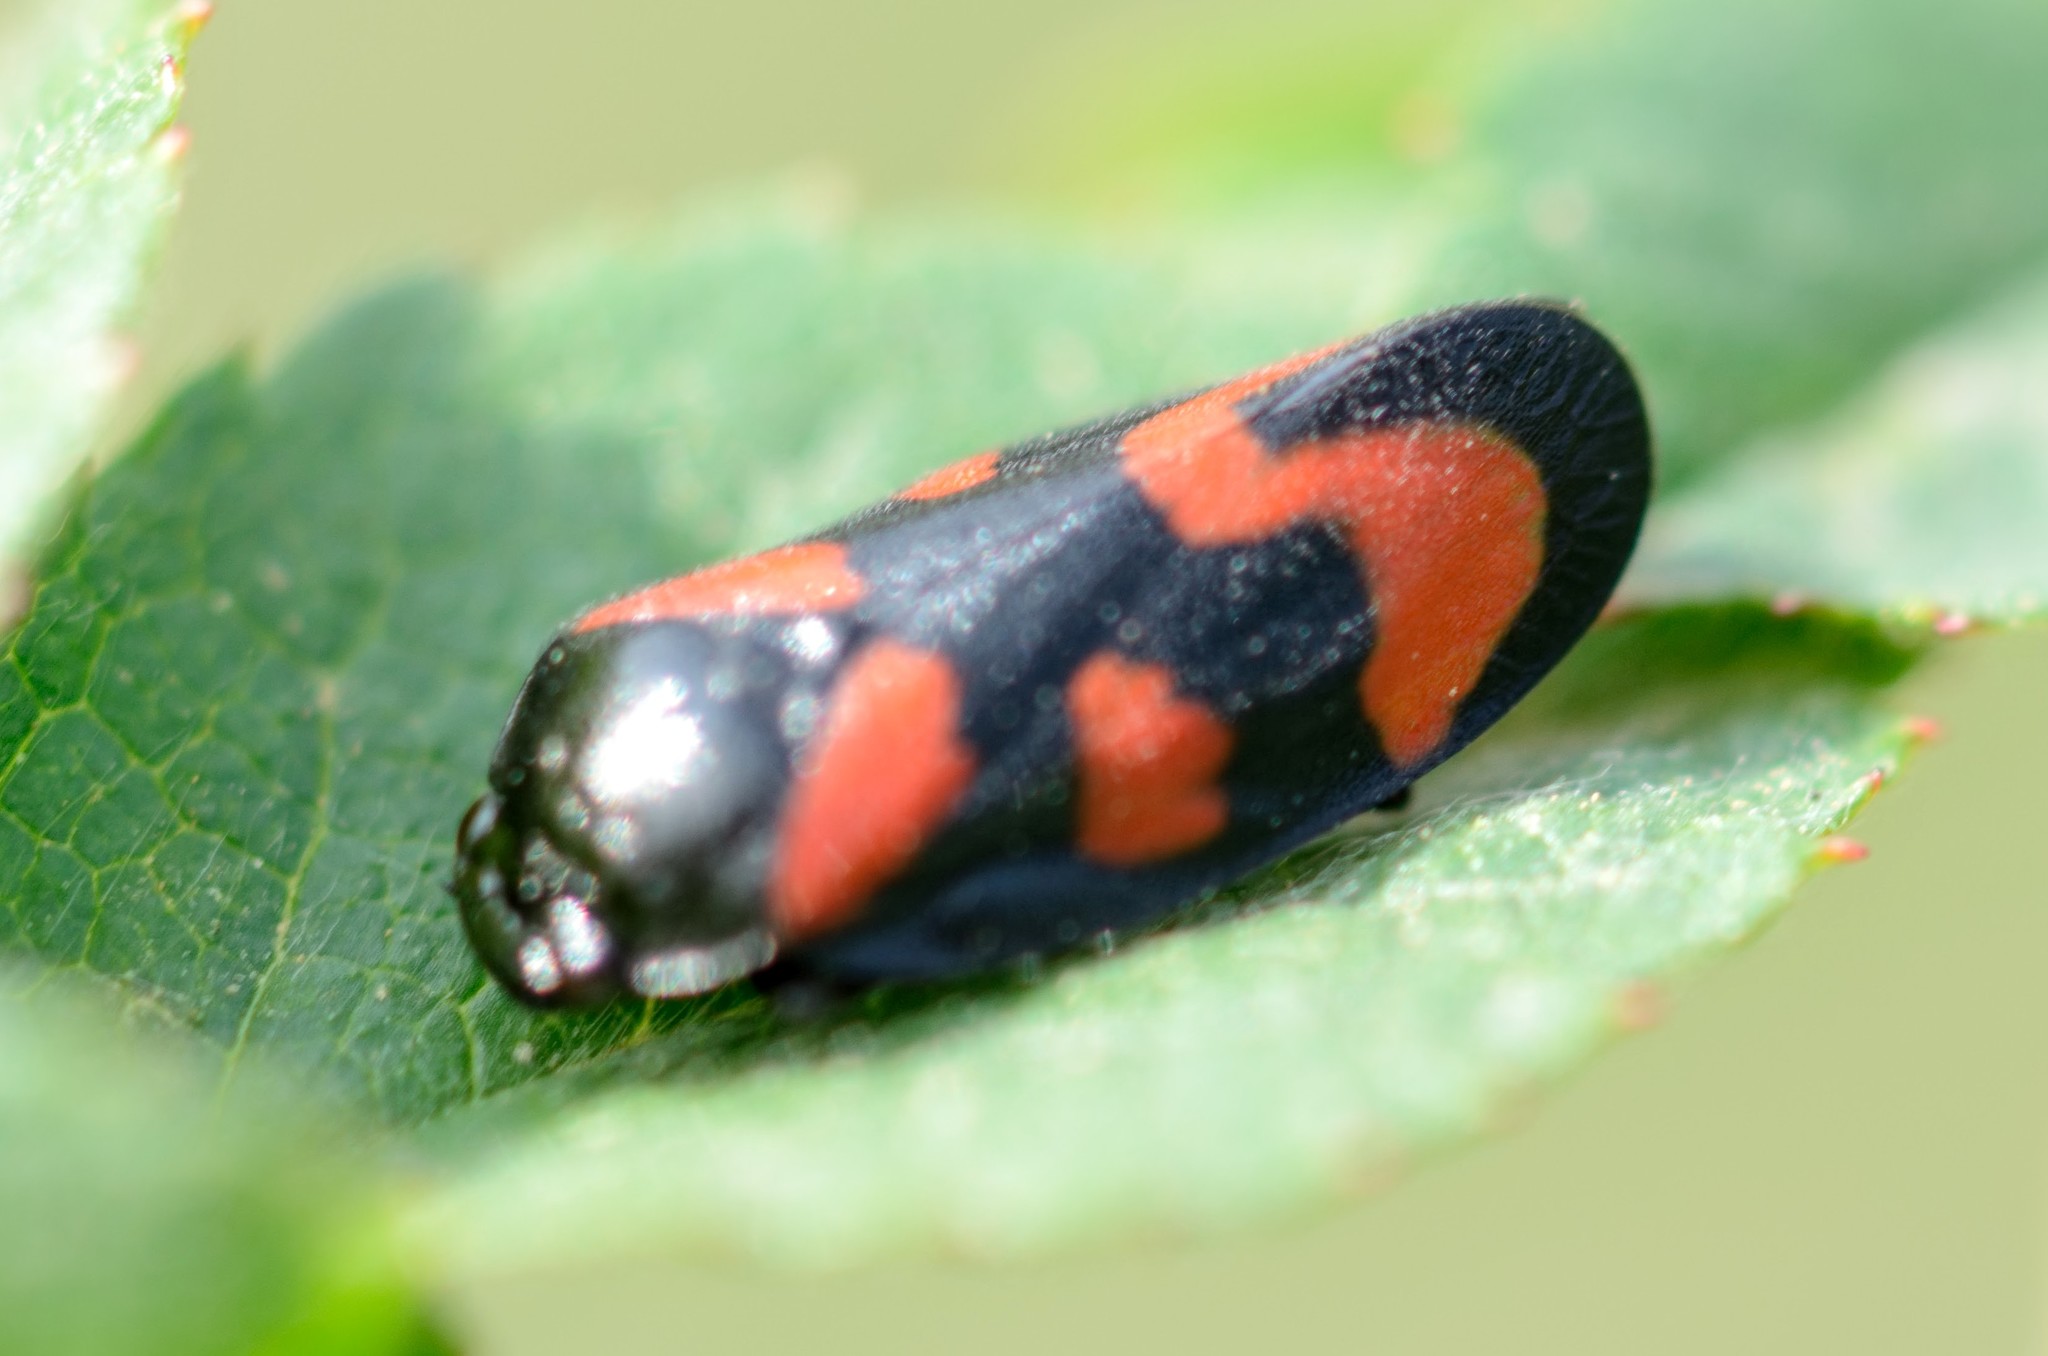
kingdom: Animalia
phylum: Arthropoda
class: Insecta
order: Hemiptera
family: Cercopidae
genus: Cercopis
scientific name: Cercopis vulnerata
